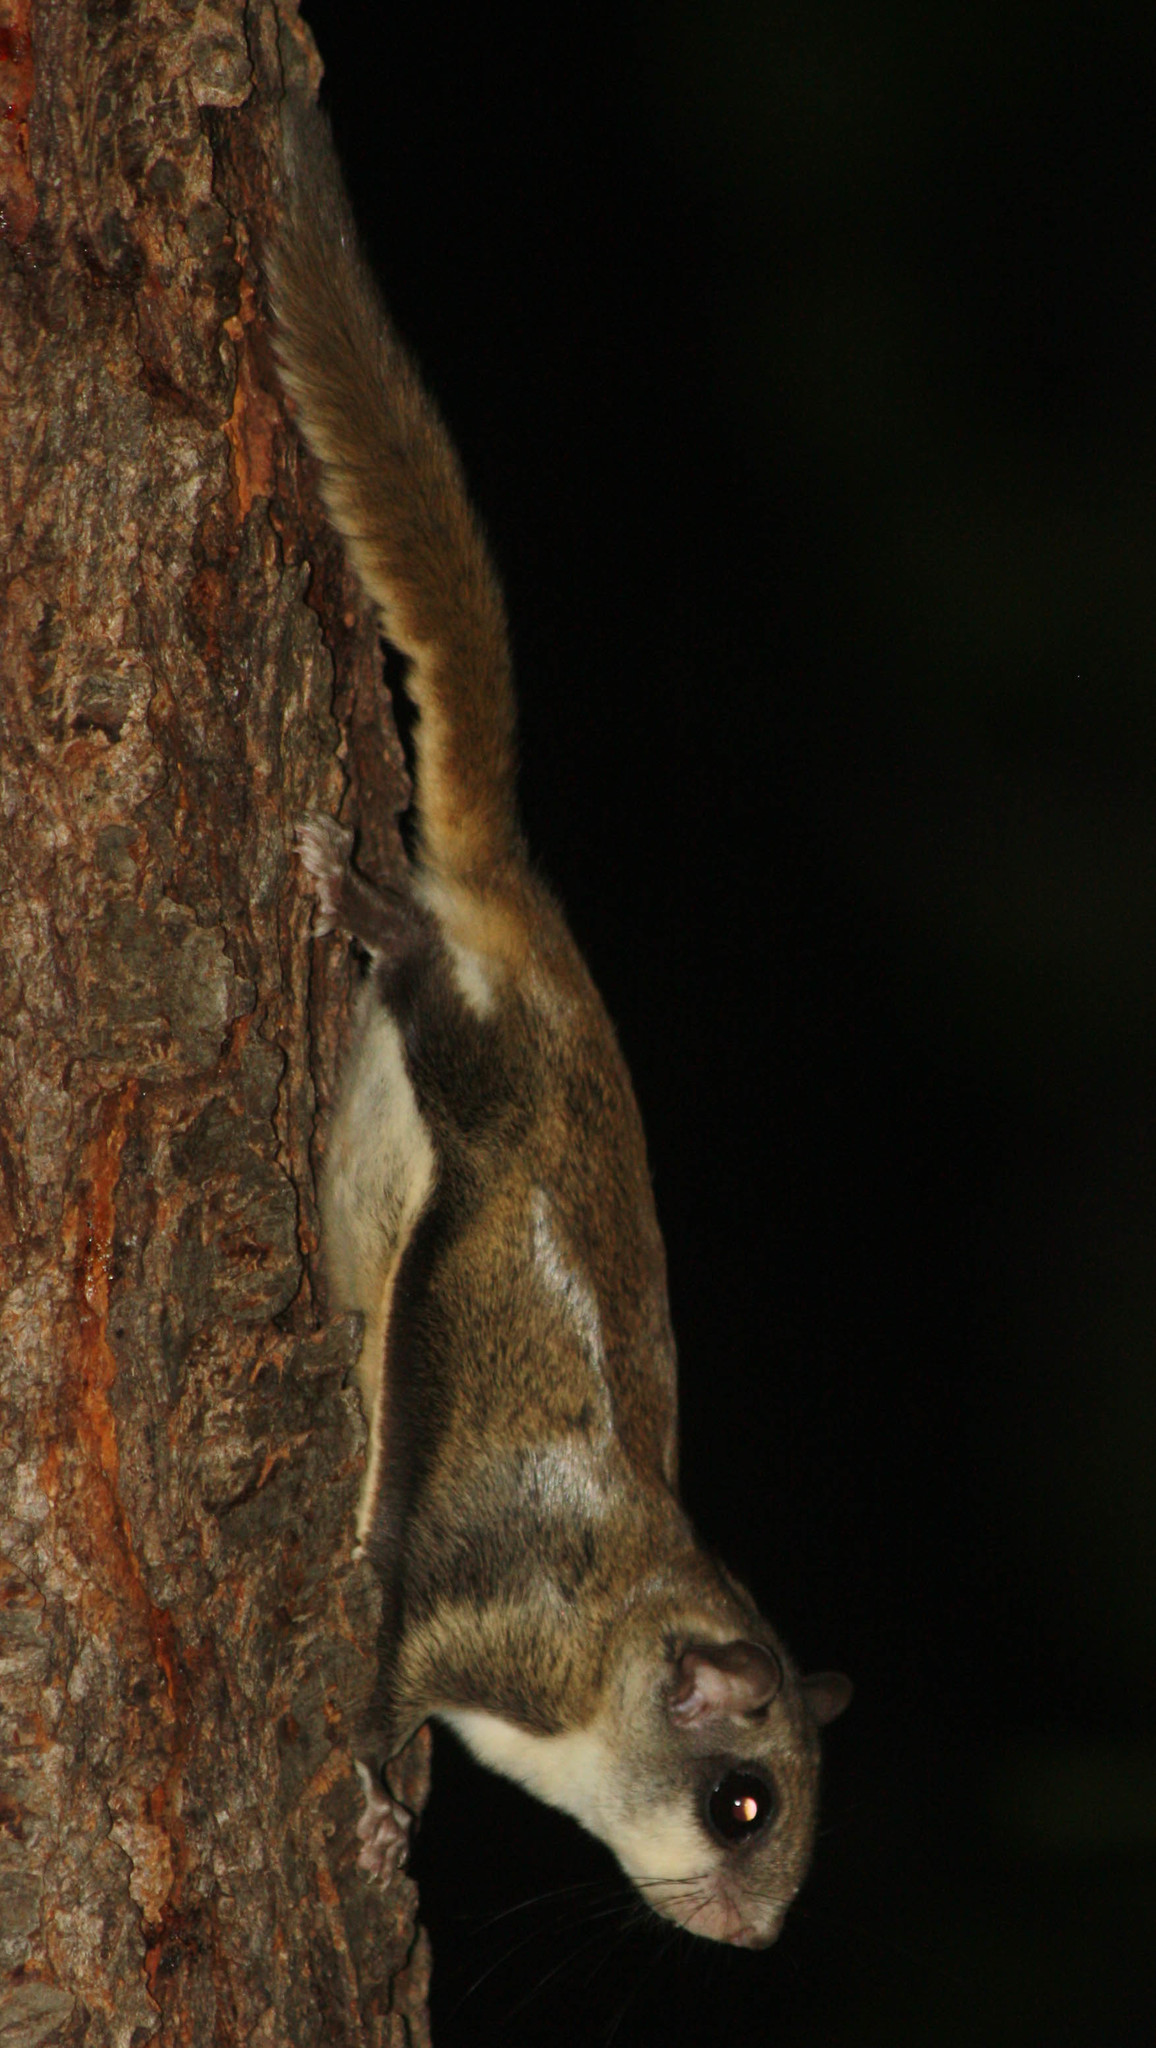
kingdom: Animalia
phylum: Chordata
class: Mammalia
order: Rodentia
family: Sciuridae
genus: Glaucomys
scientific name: Glaucomys
